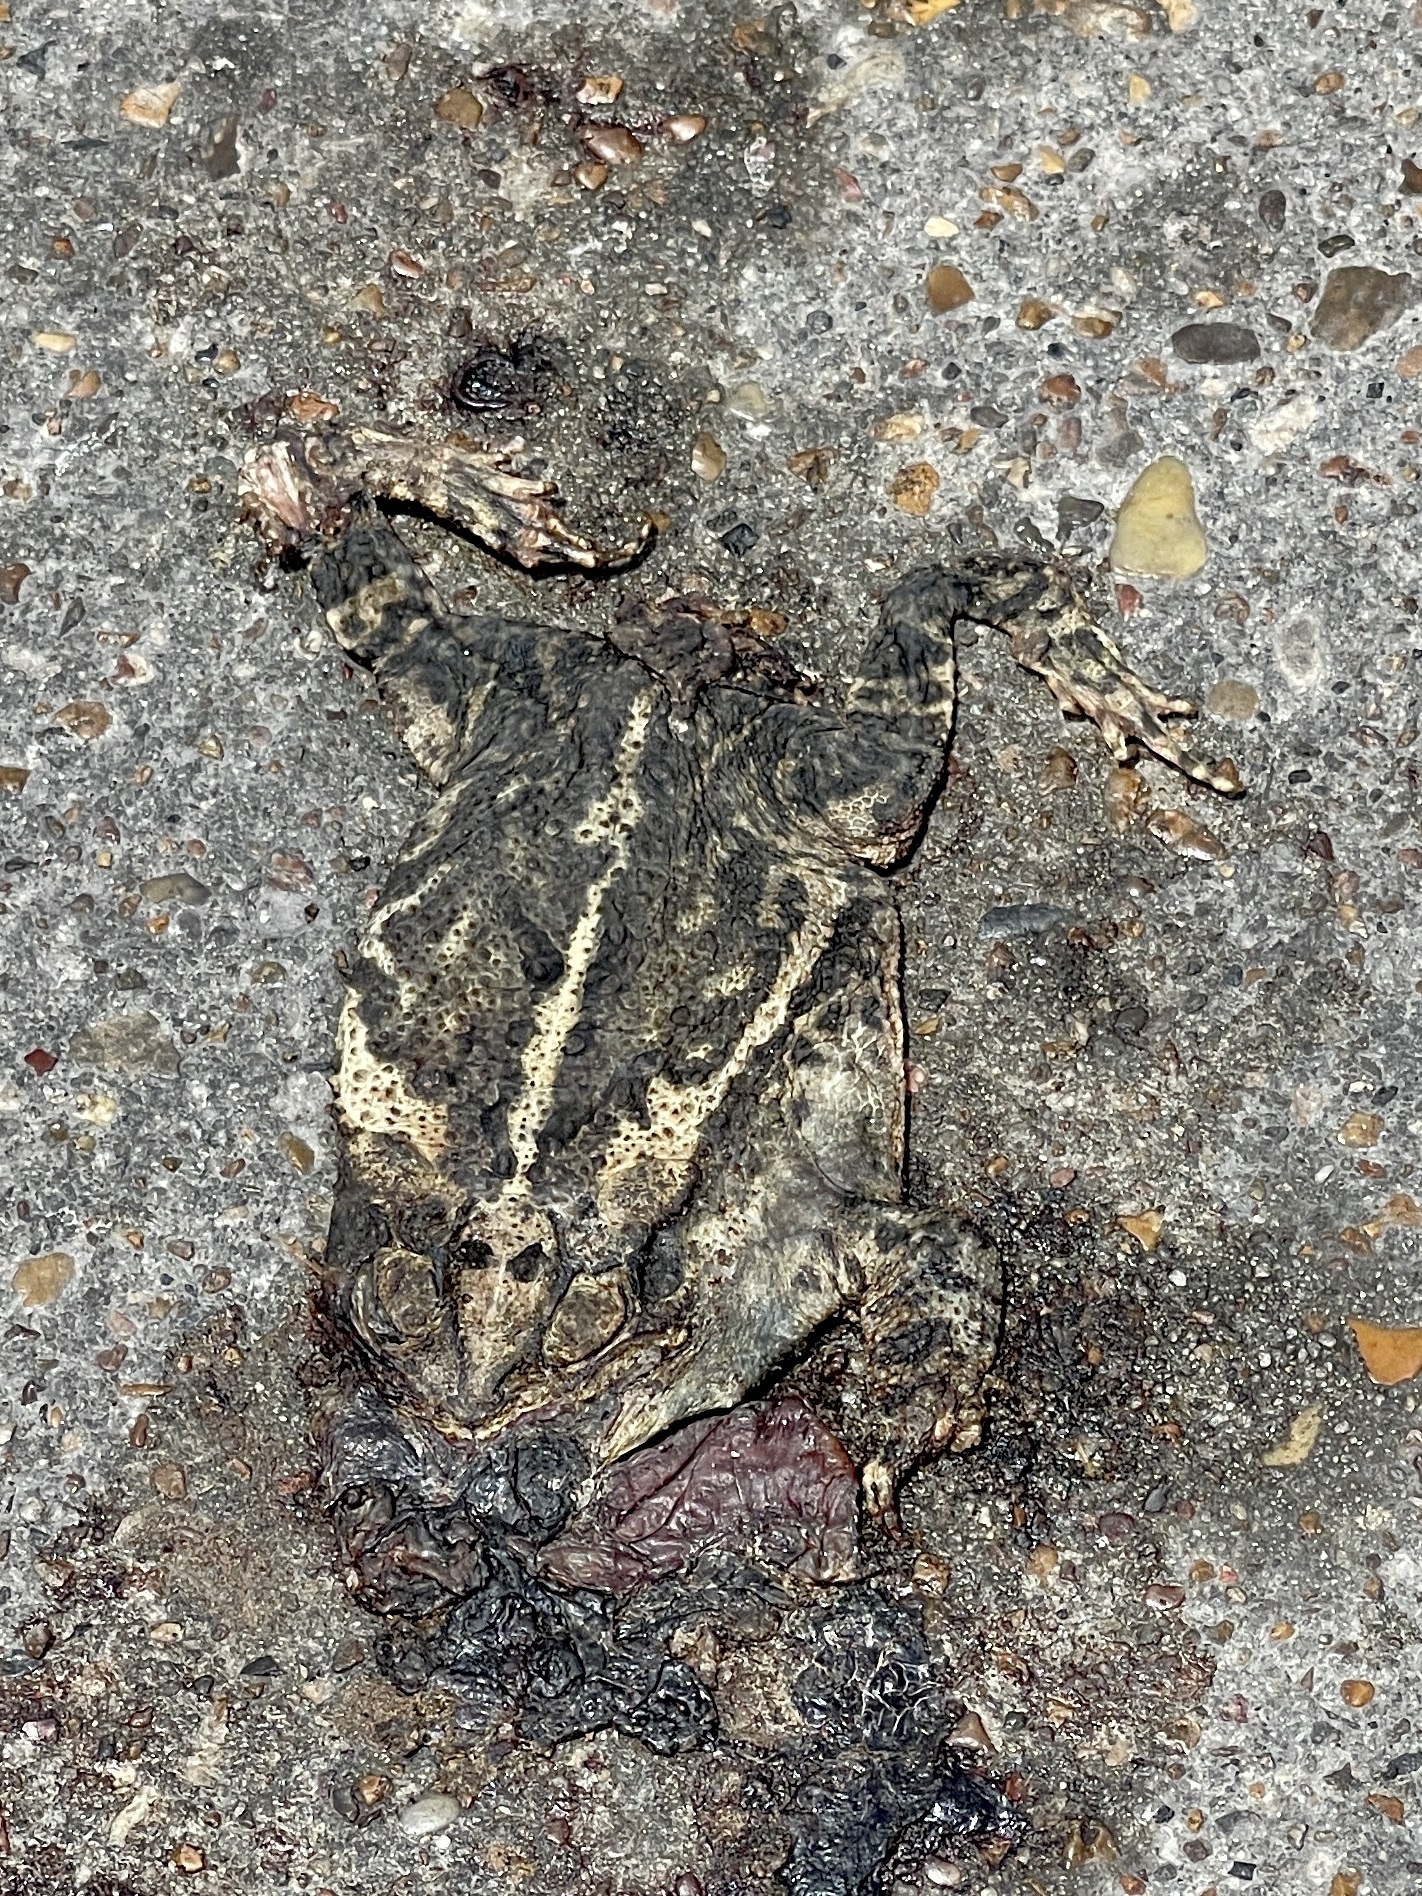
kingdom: Animalia
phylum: Chordata
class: Amphibia
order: Anura
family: Bufonidae
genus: Incilius
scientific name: Incilius nebulifer
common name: Gulf coast toad
